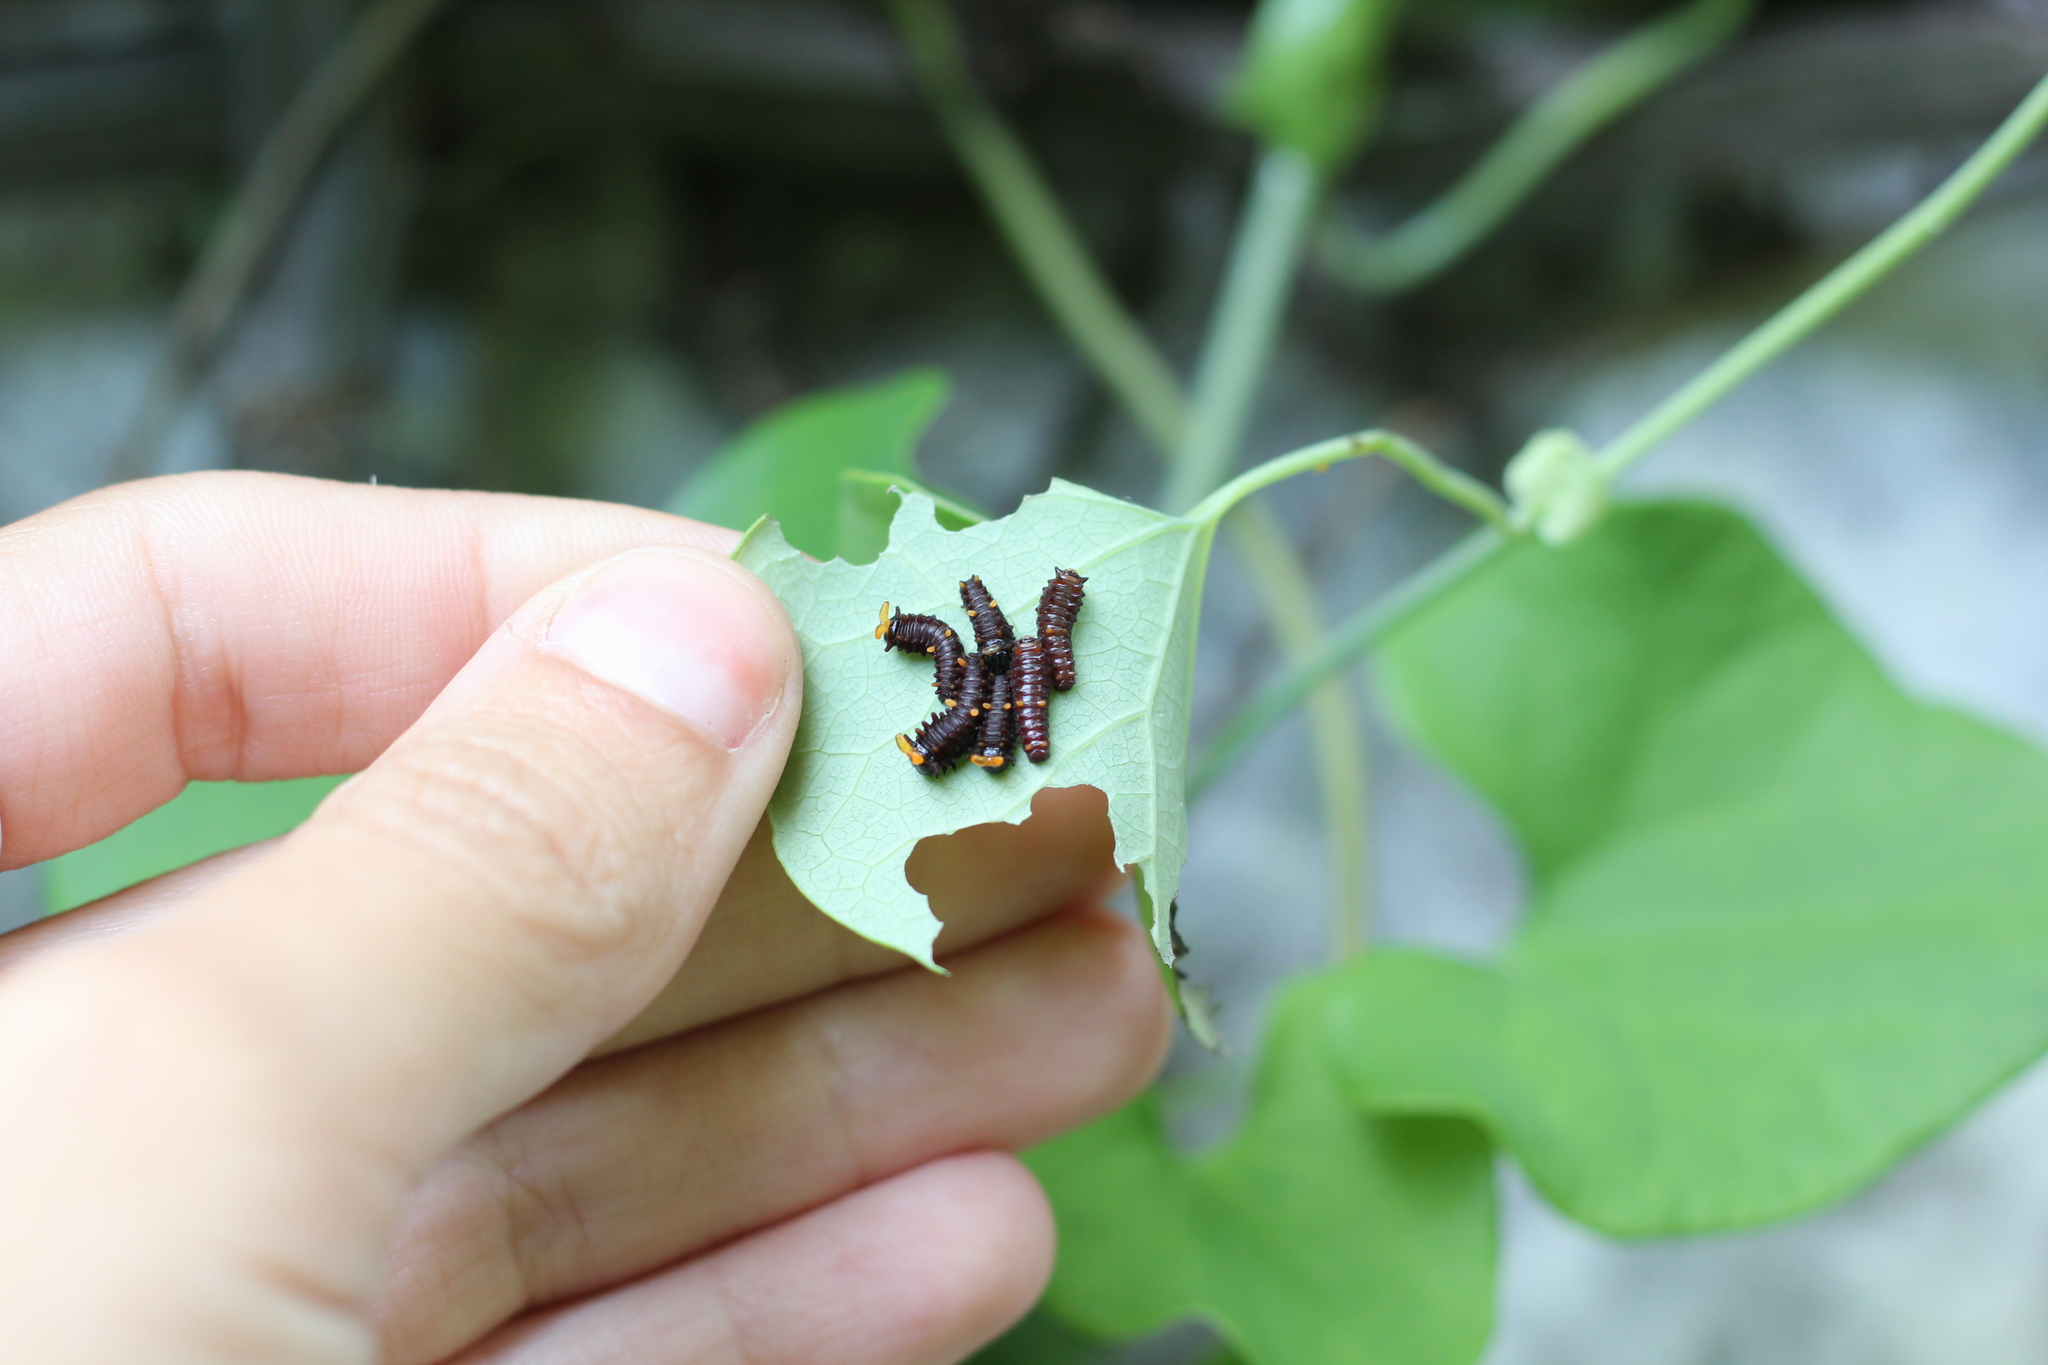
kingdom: Animalia
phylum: Arthropoda
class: Insecta
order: Lepidoptera
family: Papilionidae
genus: Battus
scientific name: Battus polydamas
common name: Polydamas swallowtail
